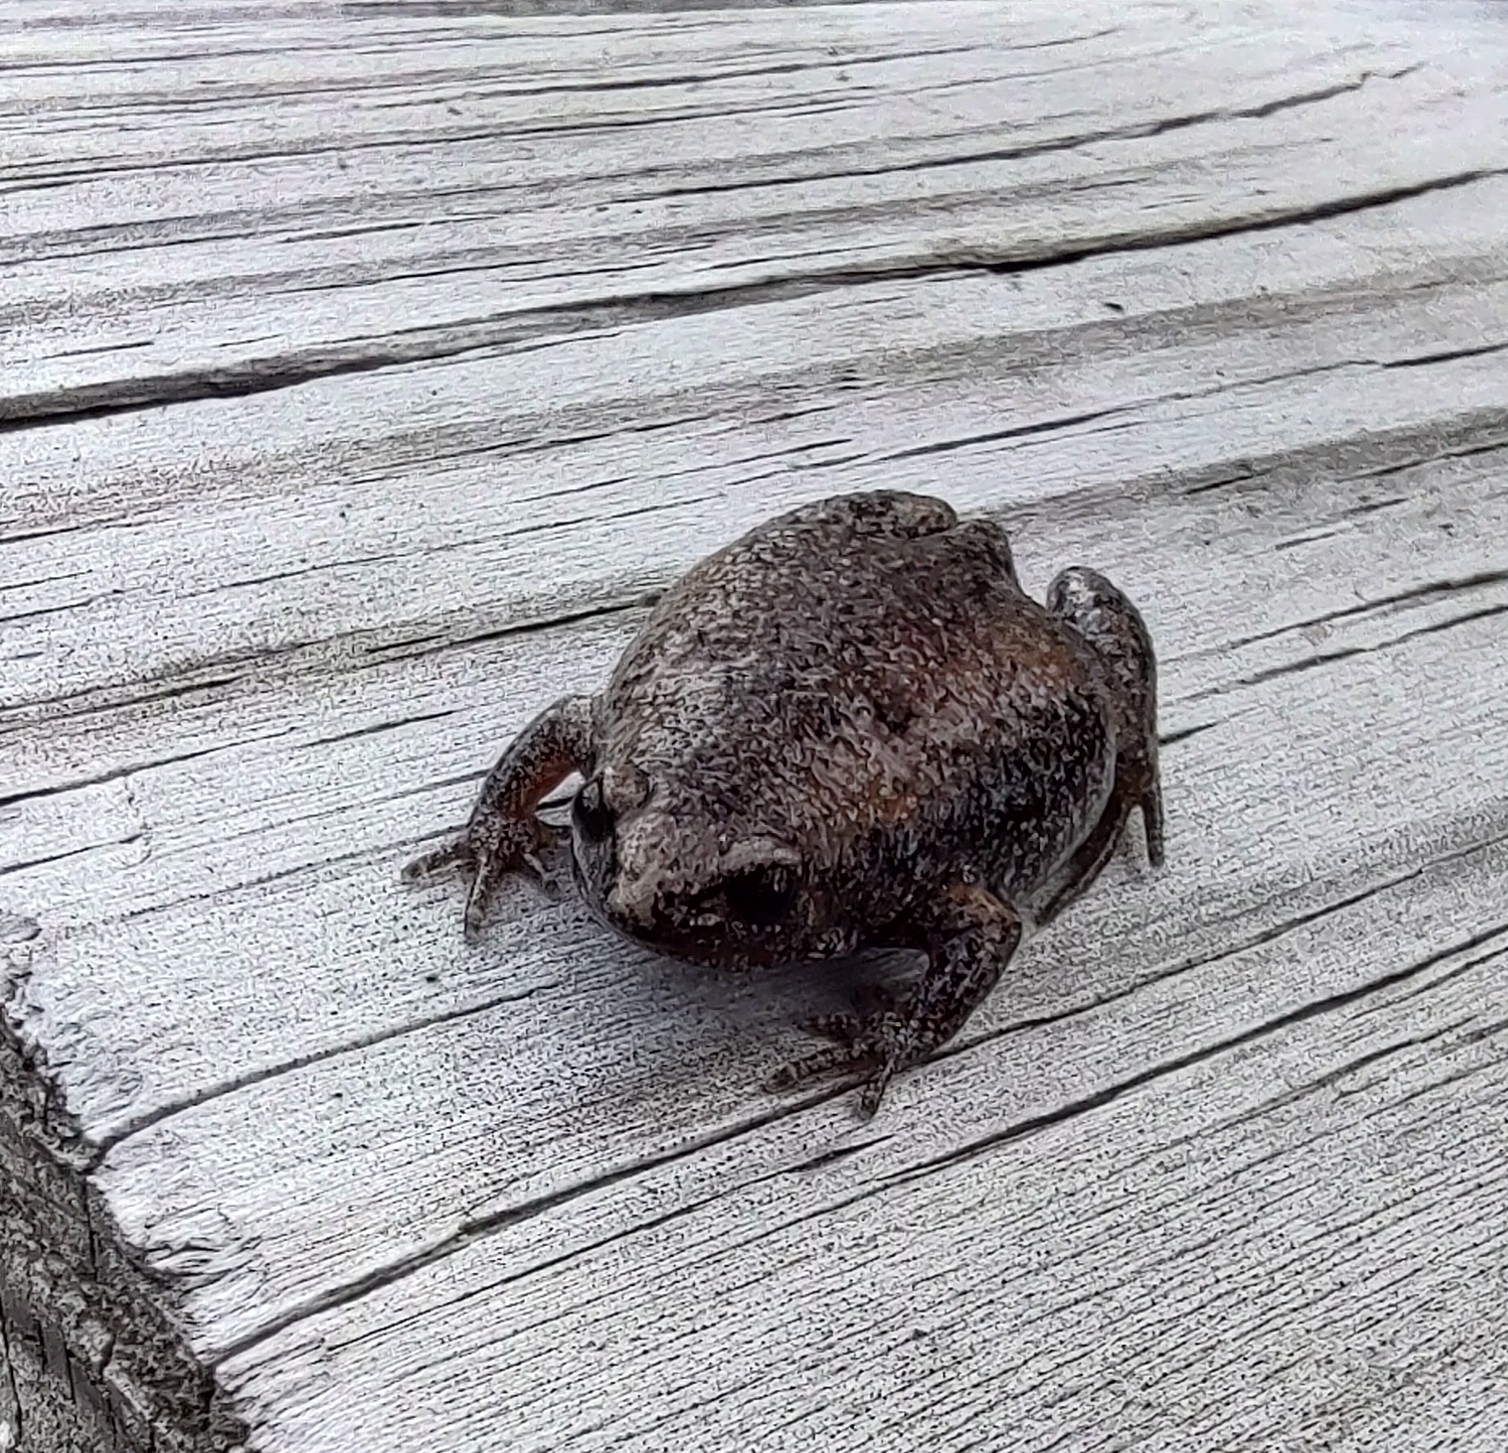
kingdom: Animalia
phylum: Chordata
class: Amphibia
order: Anura
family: Microhylidae
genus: Gastrophryne
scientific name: Gastrophryne carolinensis
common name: Eastern narrowmouth toad
